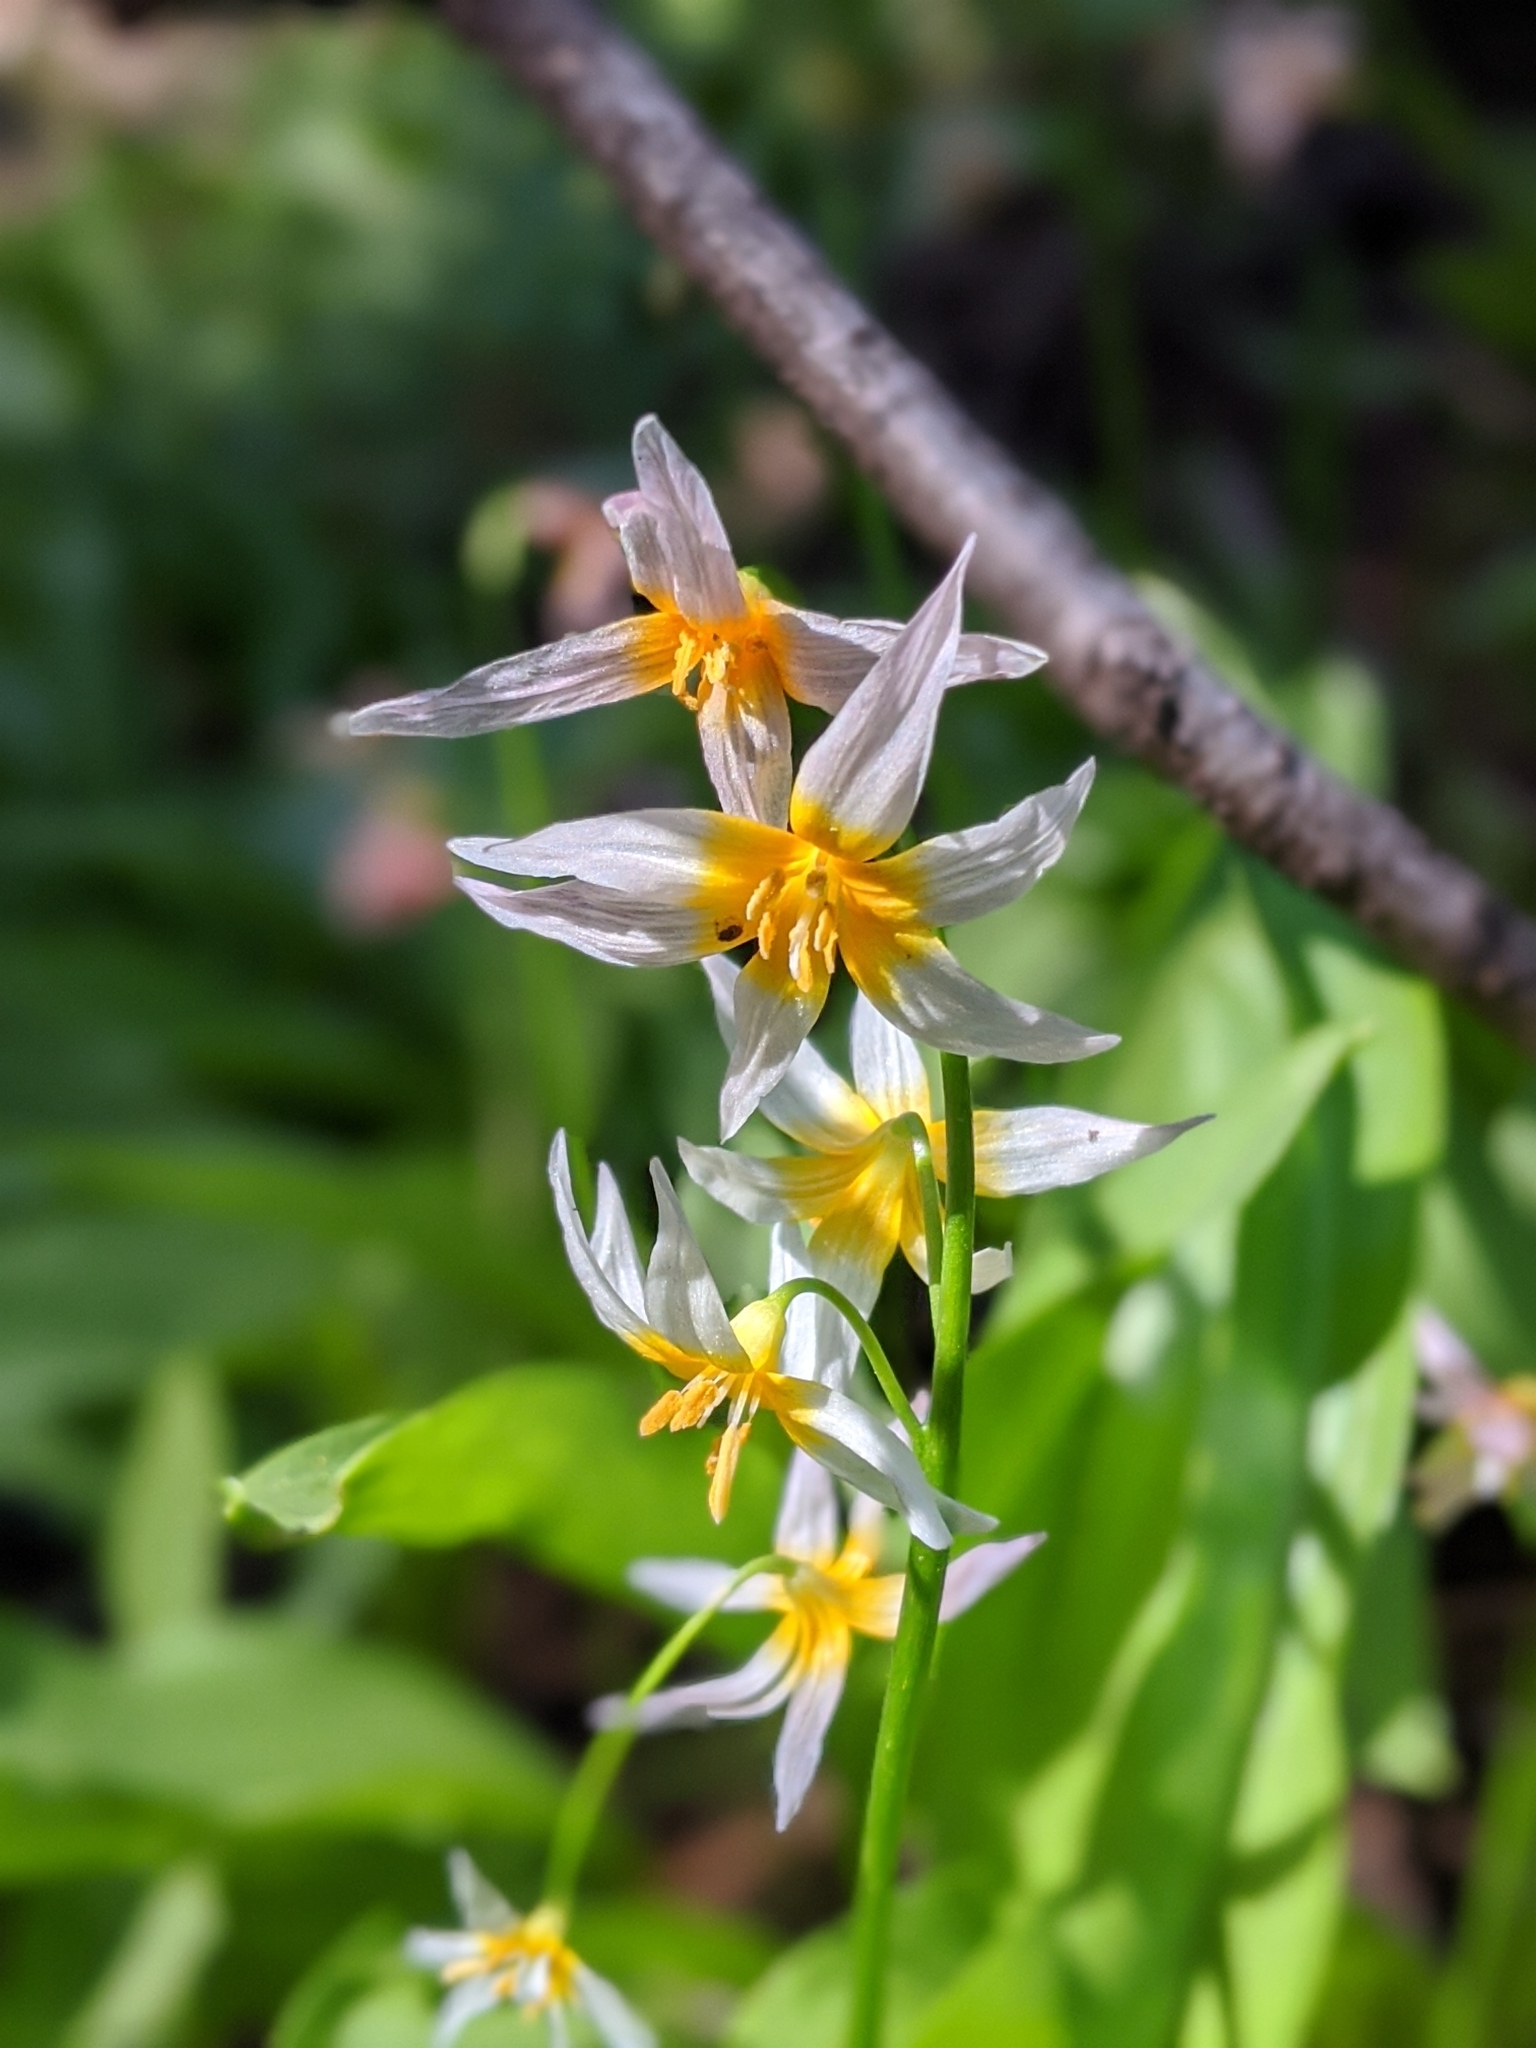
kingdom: Plantae
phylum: Tracheophyta
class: Liliopsida
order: Liliales
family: Liliaceae
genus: Erythronium
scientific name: Erythronium purpurascens
